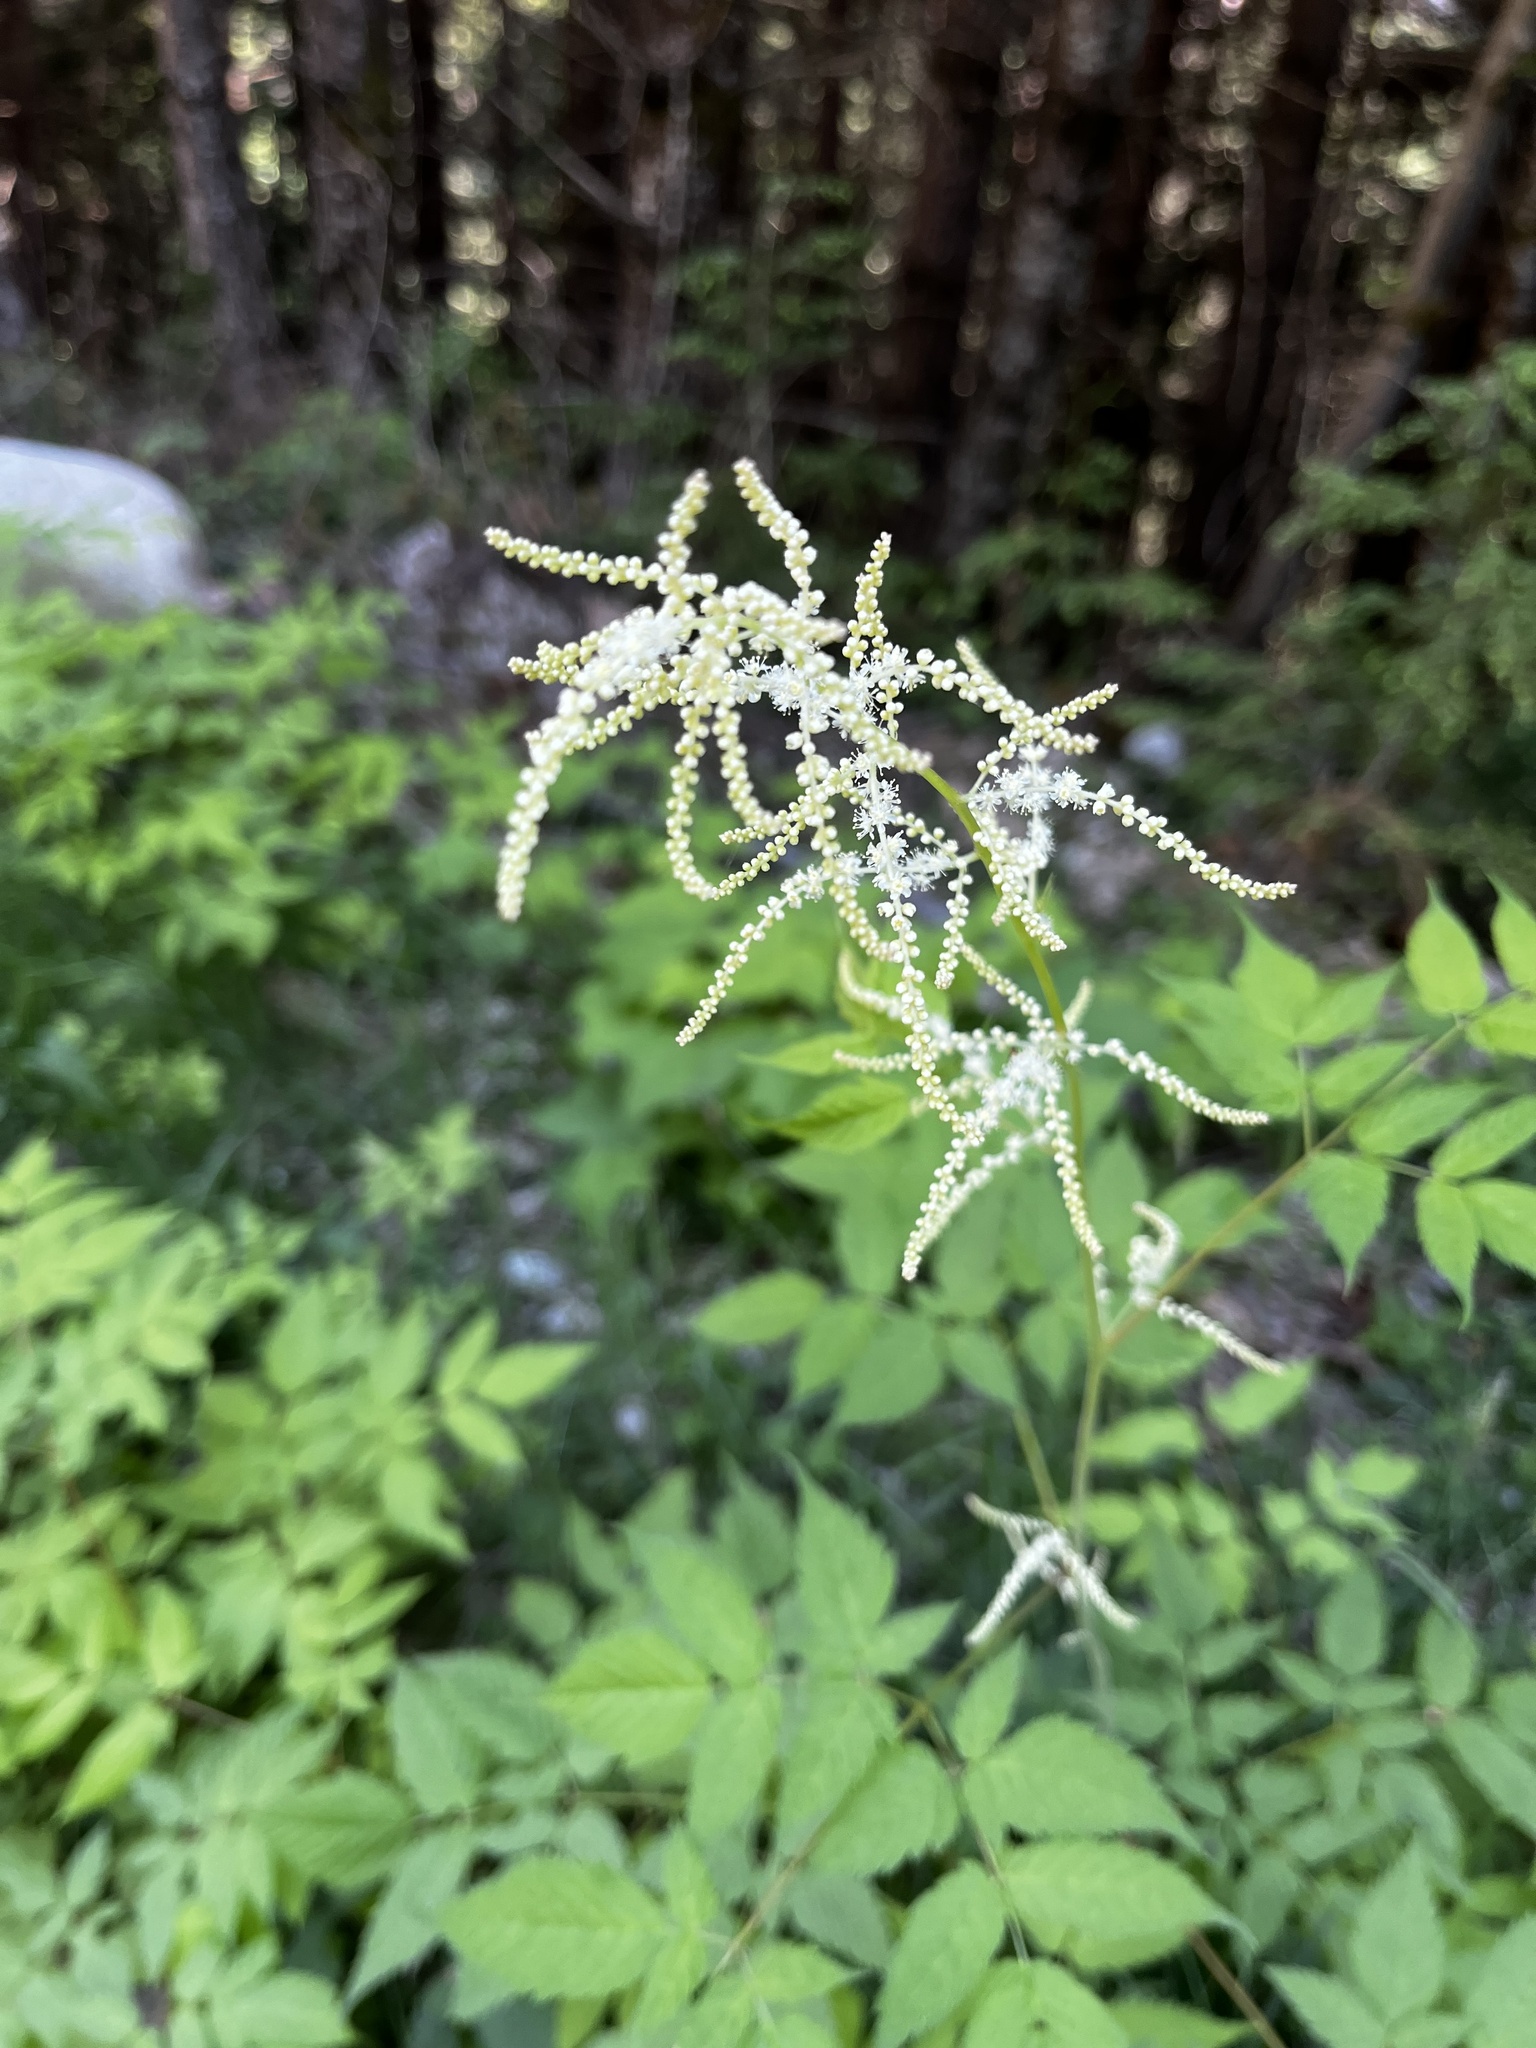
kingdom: Plantae
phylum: Tracheophyta
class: Magnoliopsida
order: Rosales
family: Rosaceae
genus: Aruncus
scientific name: Aruncus dioicus
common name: Buck's-beard
